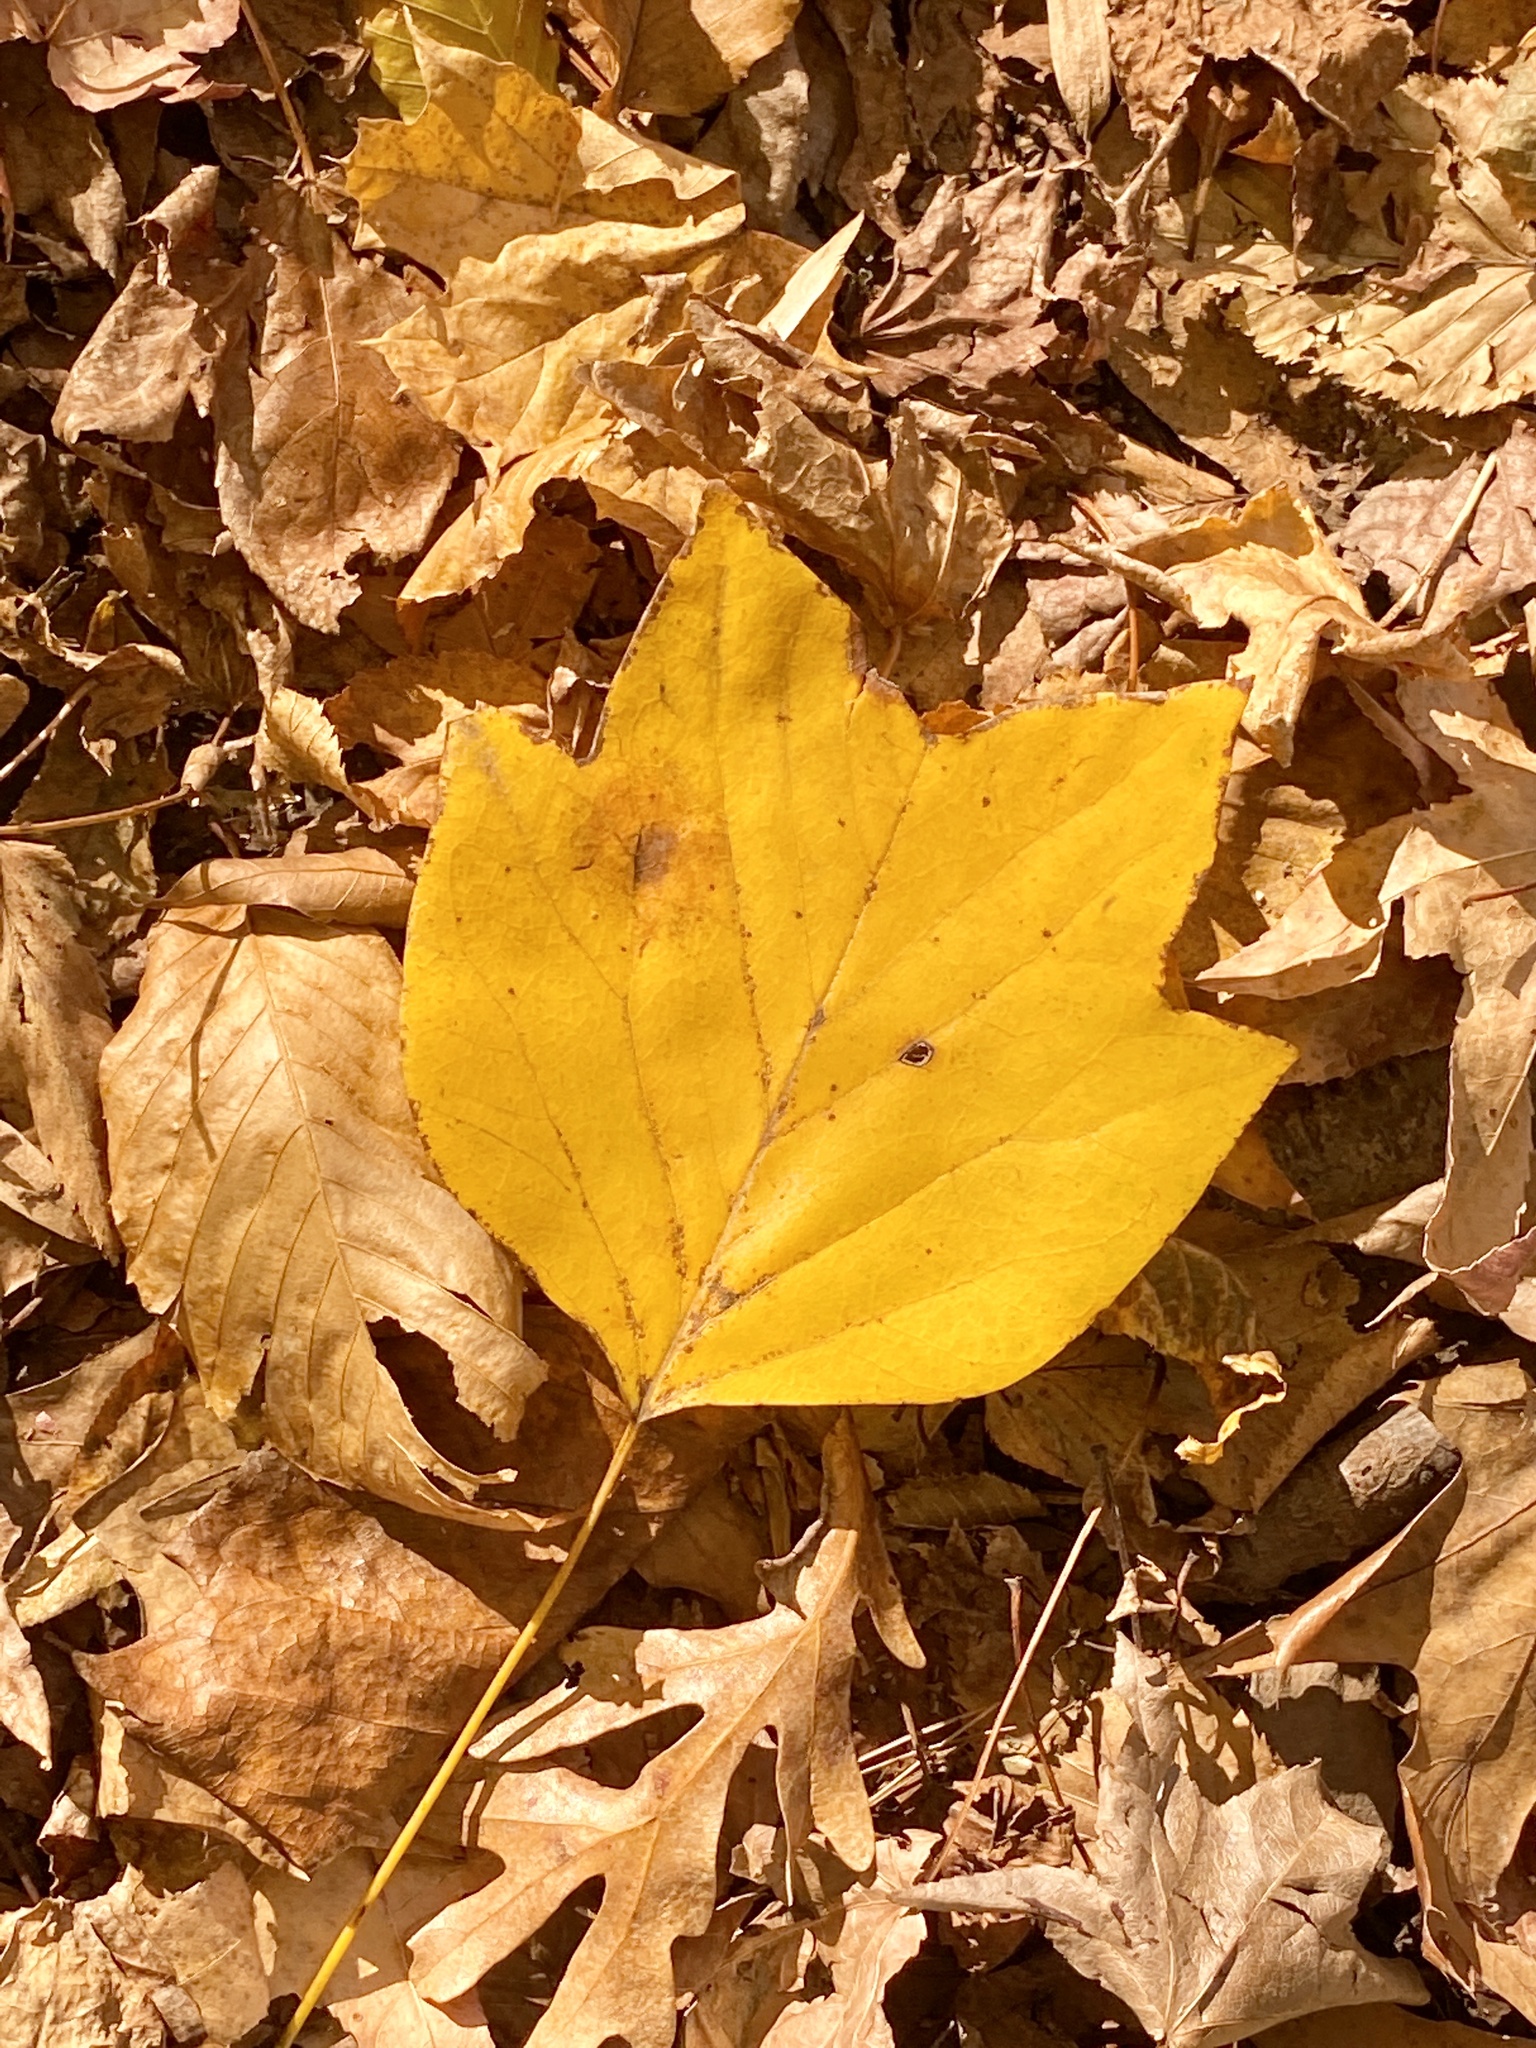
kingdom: Plantae
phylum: Tracheophyta
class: Magnoliopsida
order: Magnoliales
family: Magnoliaceae
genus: Liriodendron
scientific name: Liriodendron tulipifera
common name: Tulip tree
